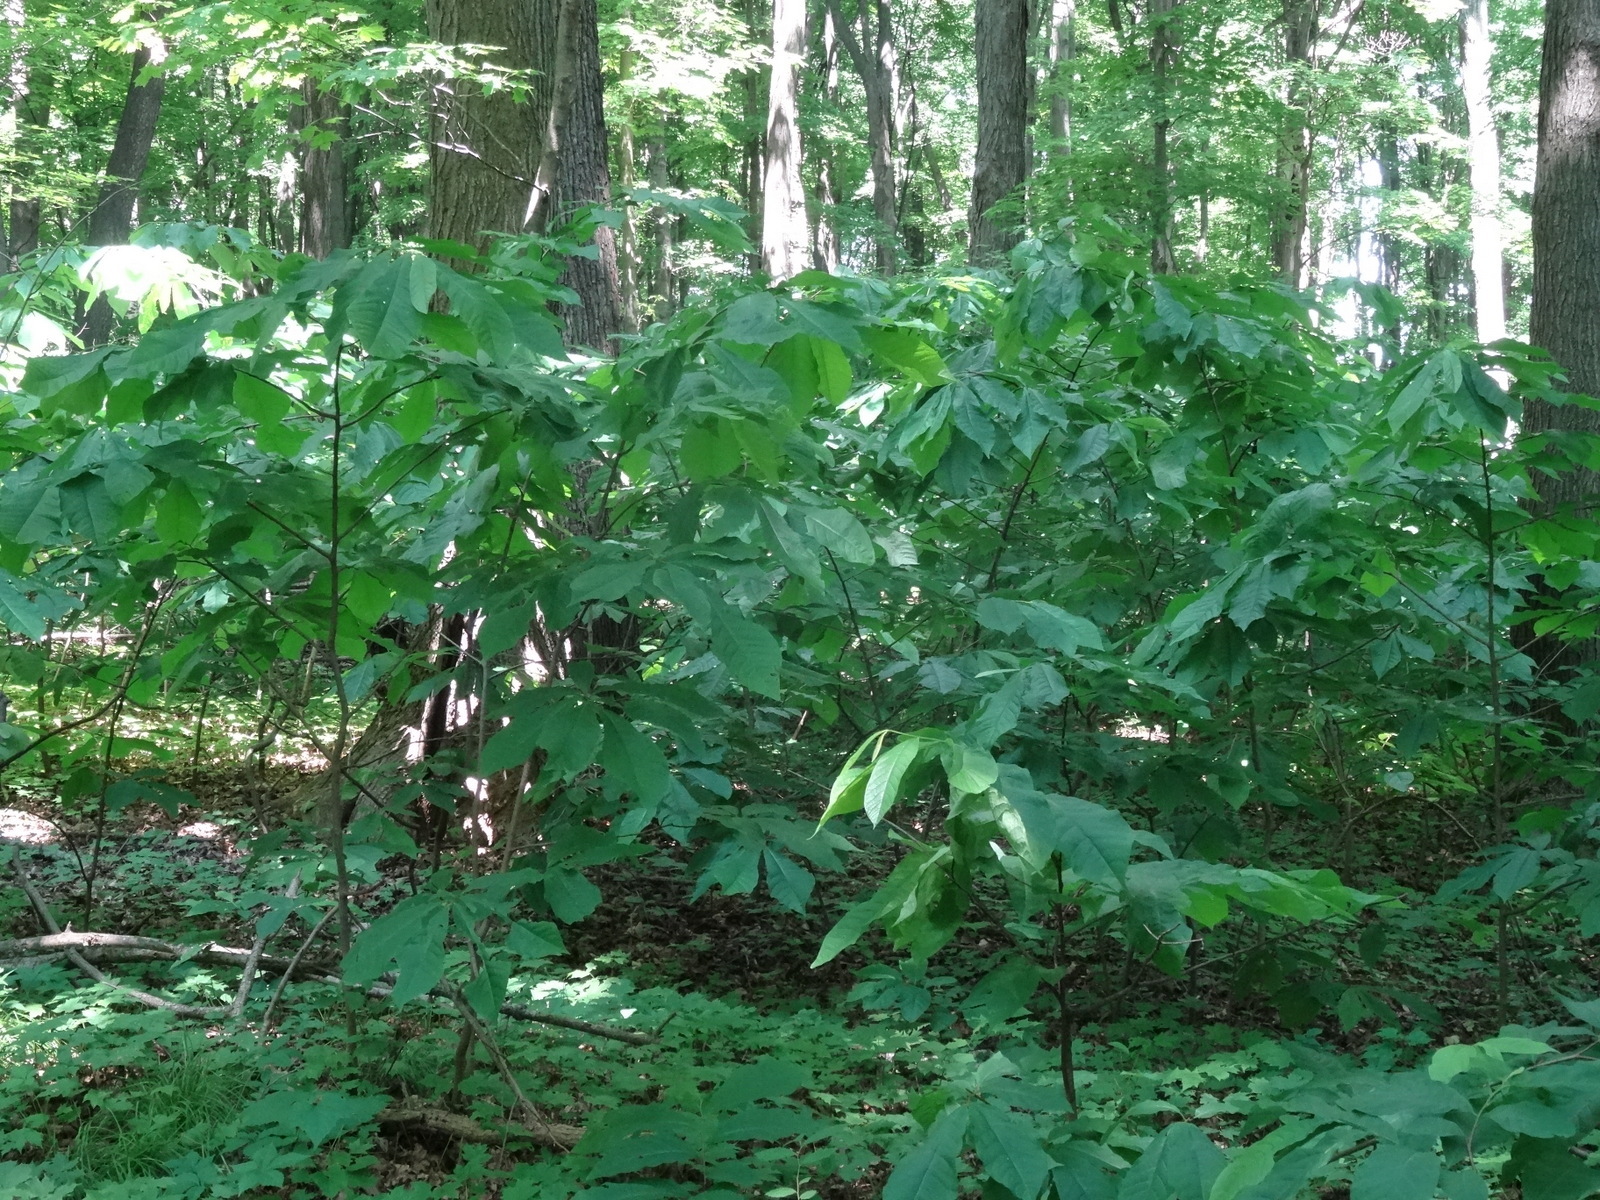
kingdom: Plantae
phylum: Tracheophyta
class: Magnoliopsida
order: Magnoliales
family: Annonaceae
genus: Asimina
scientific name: Asimina triloba
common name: Dog-banana
